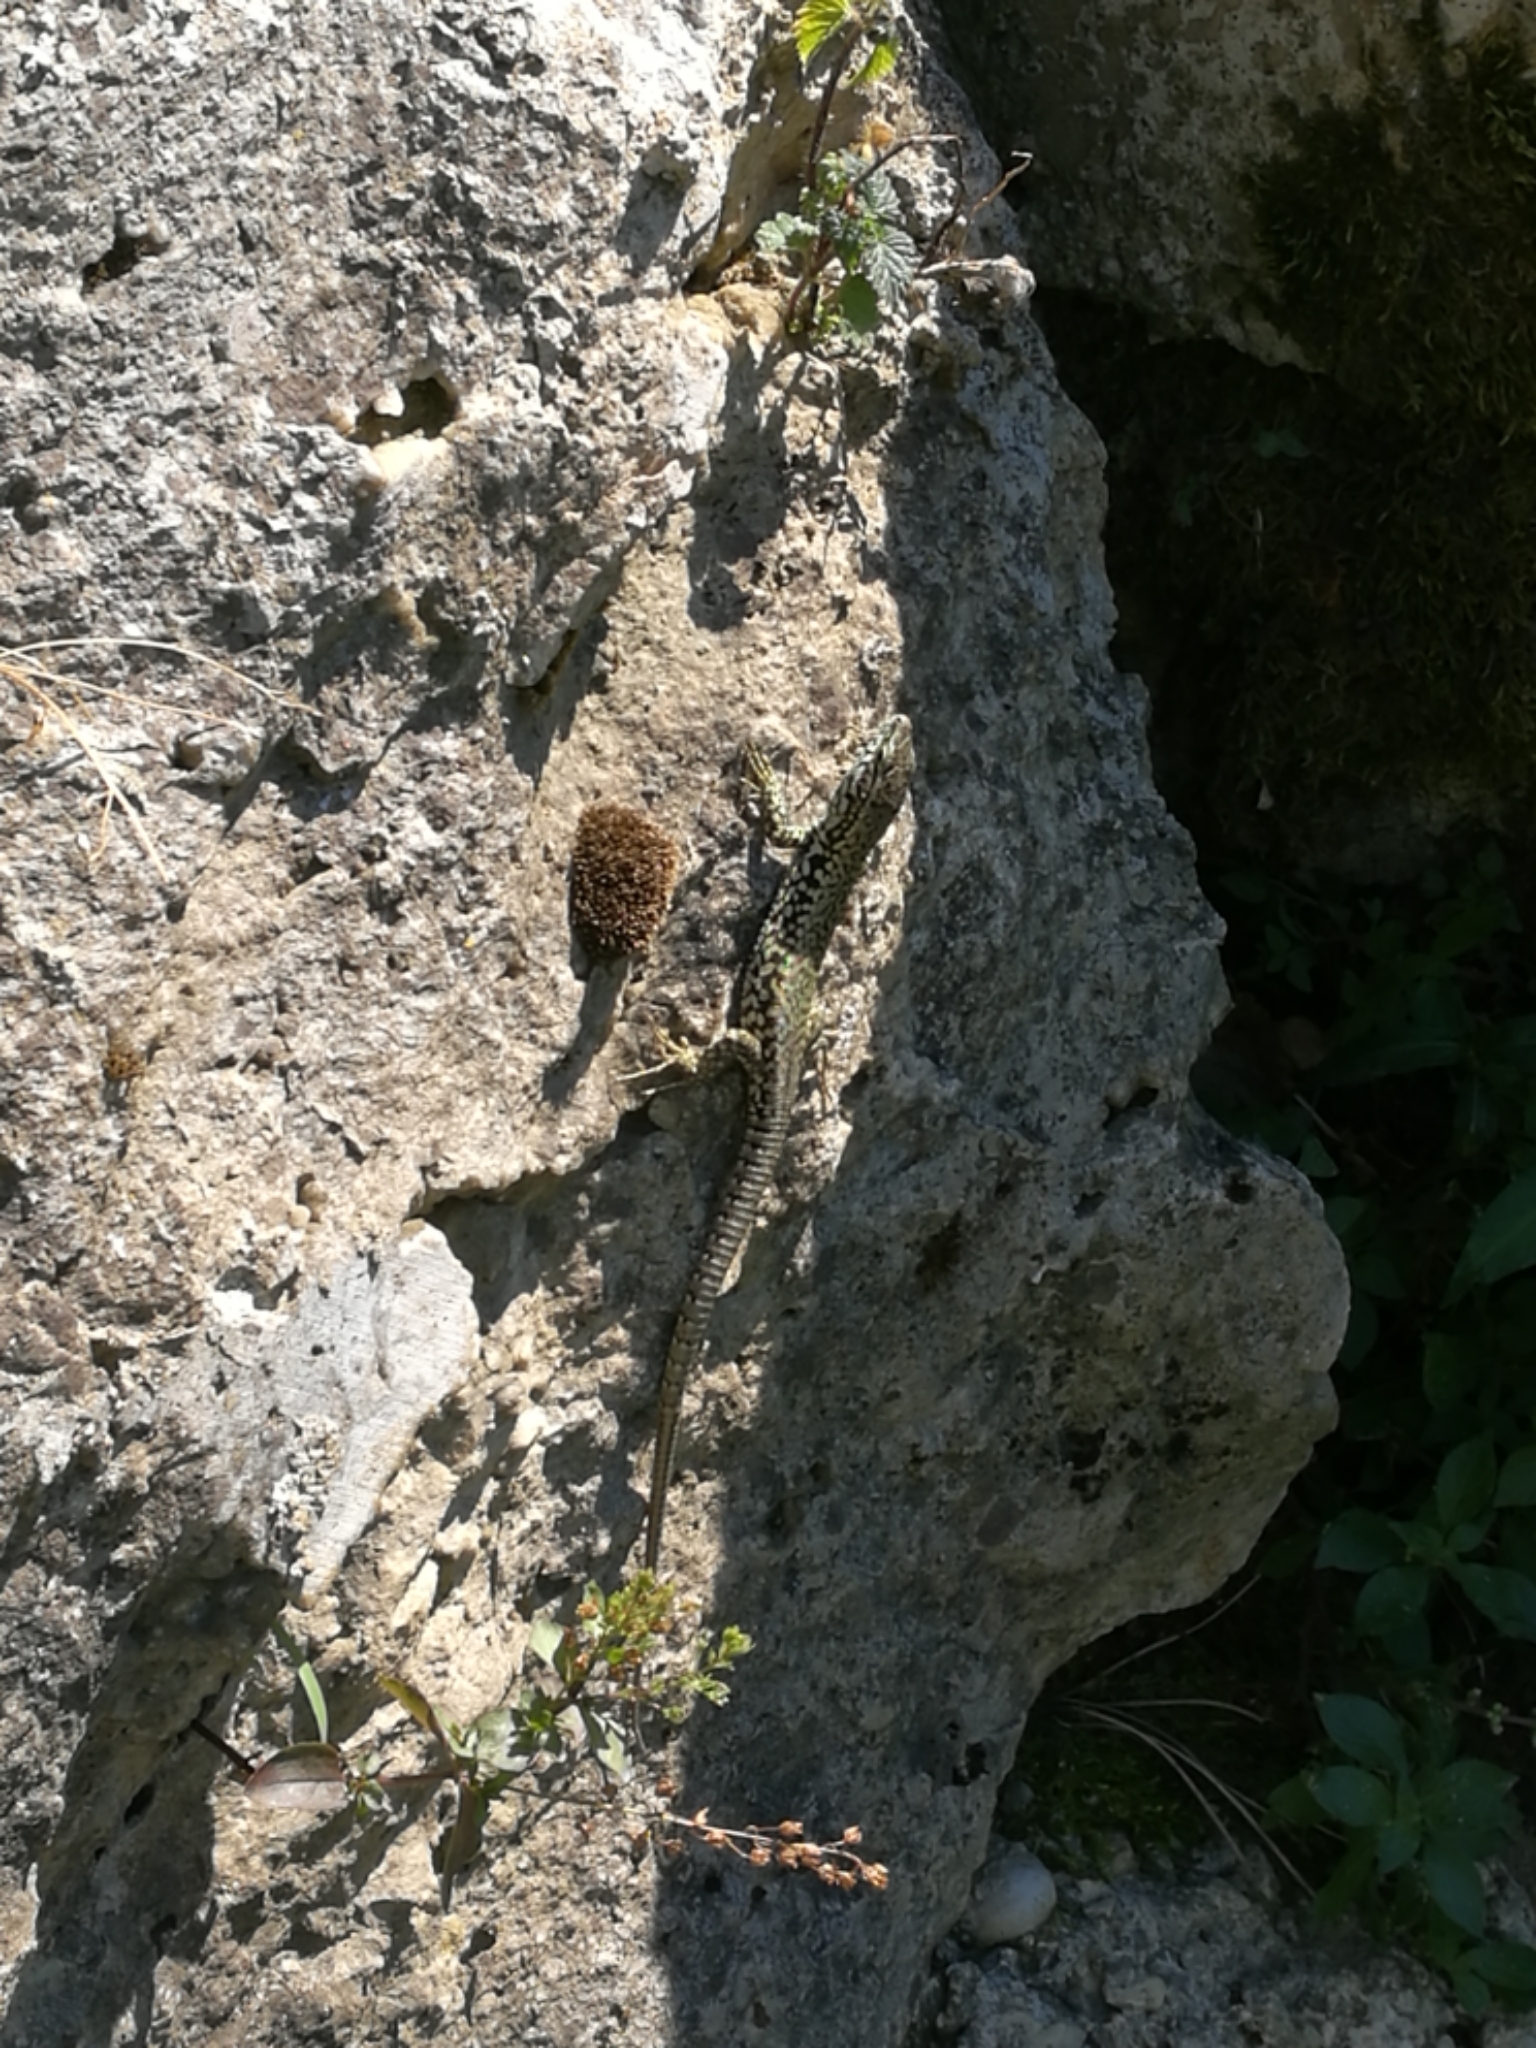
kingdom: Animalia
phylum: Chordata
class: Squamata
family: Lacertidae
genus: Podarcis
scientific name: Podarcis muralis
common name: Common wall lizard
